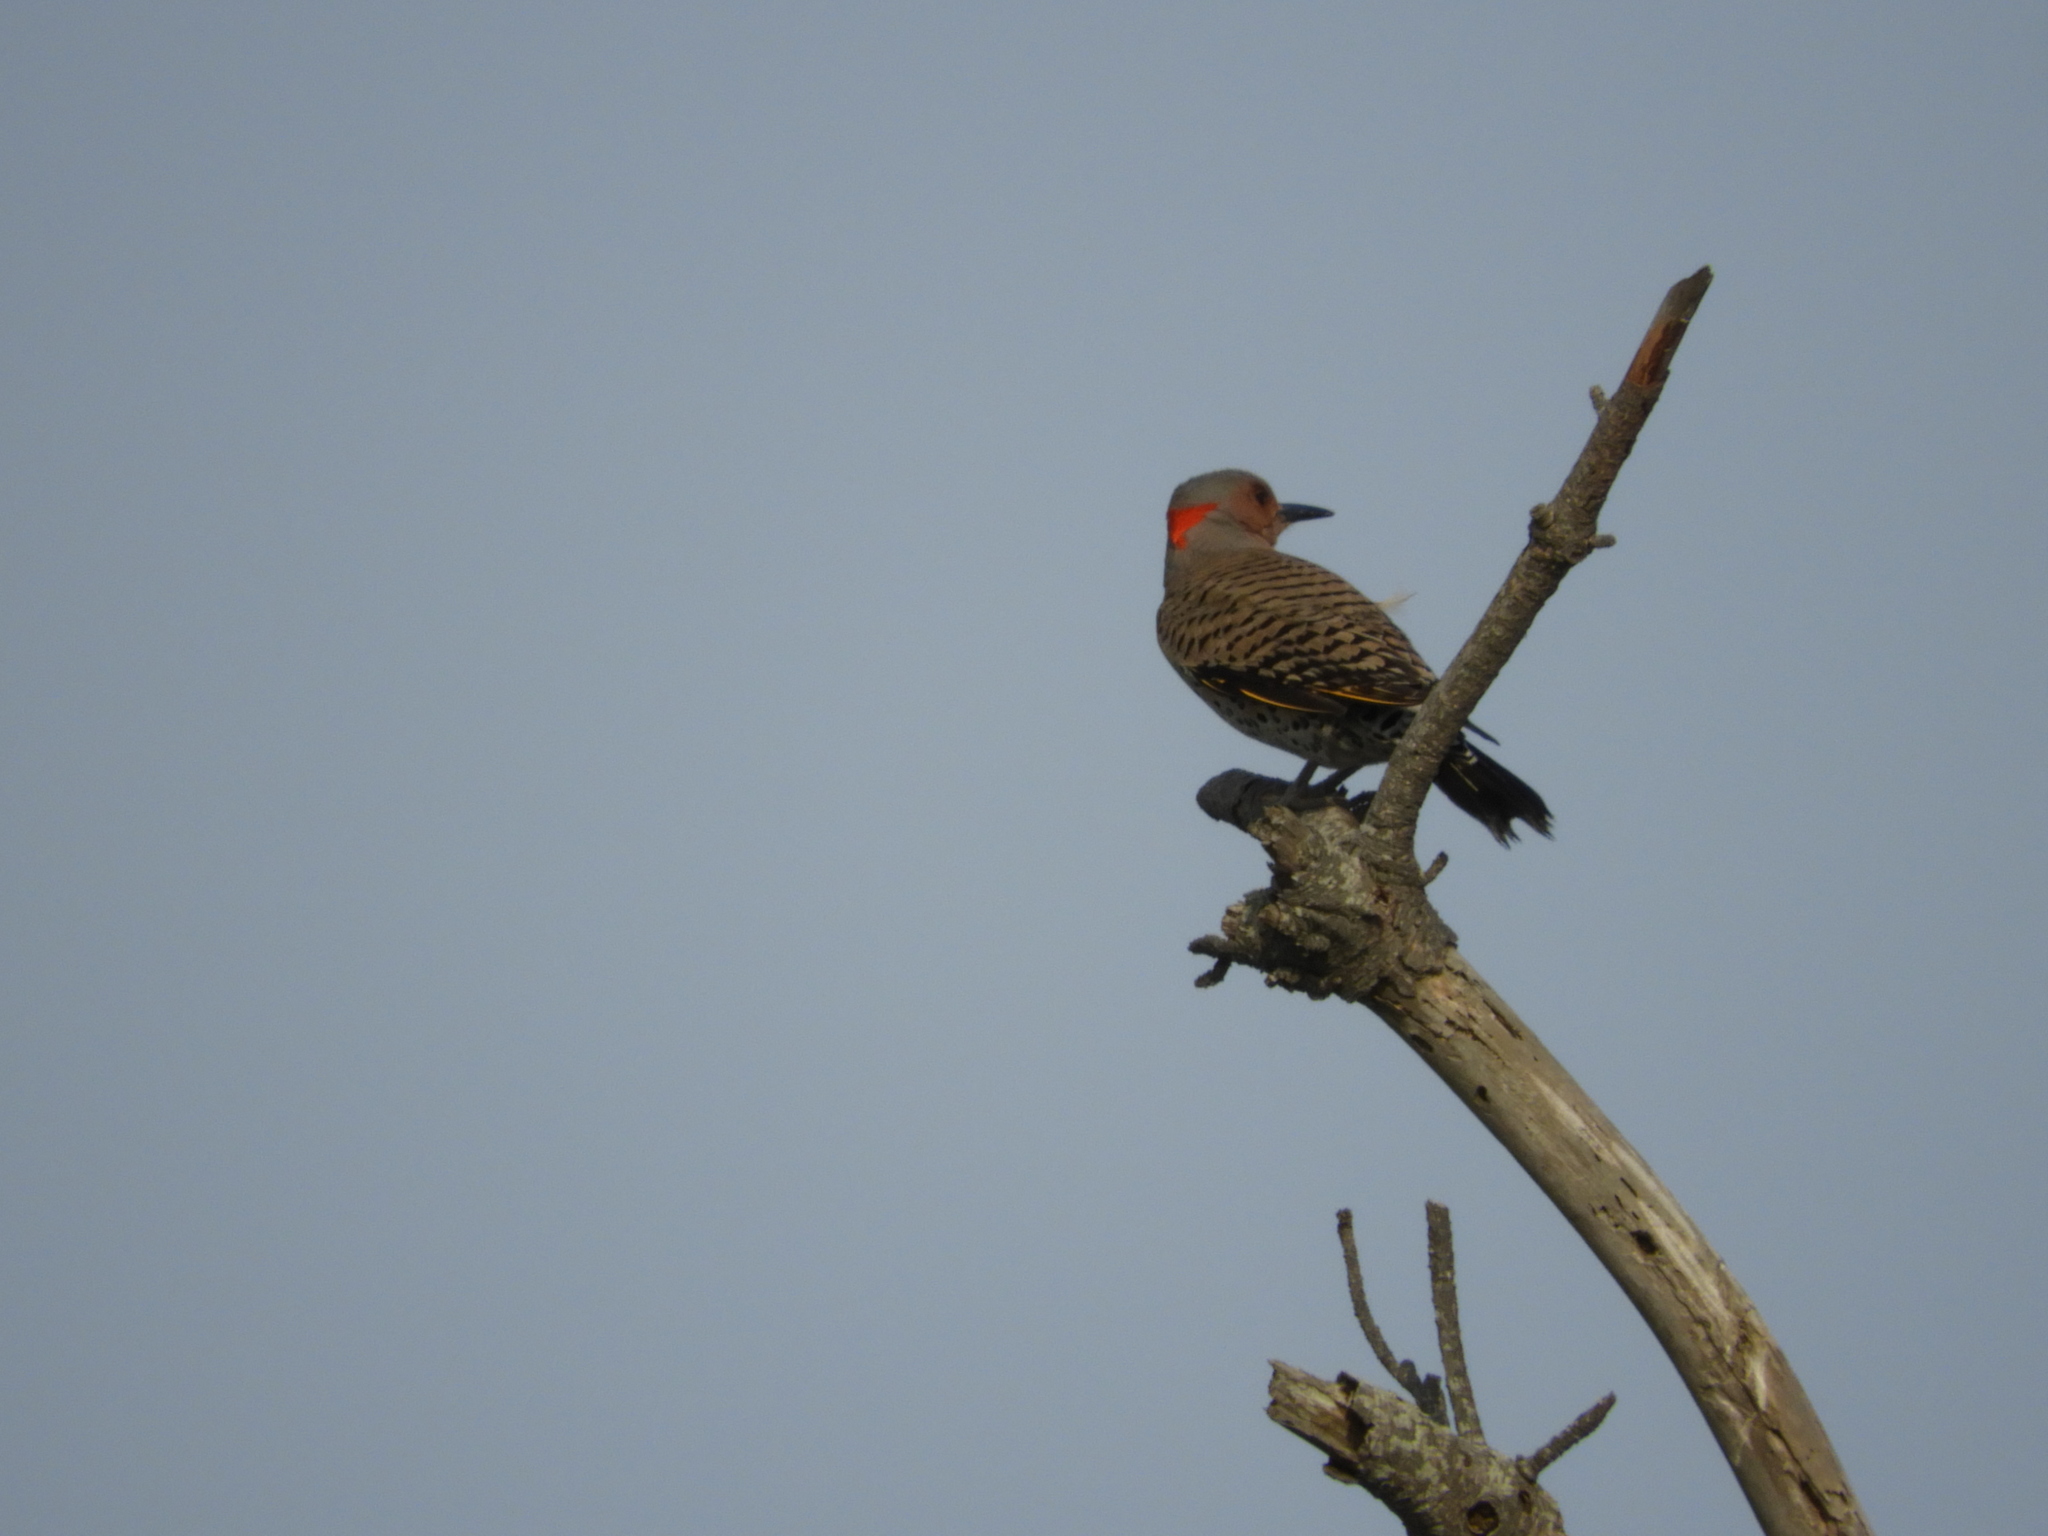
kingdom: Animalia
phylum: Chordata
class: Aves
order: Piciformes
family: Picidae
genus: Colaptes
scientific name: Colaptes auratus
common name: Northern flicker
